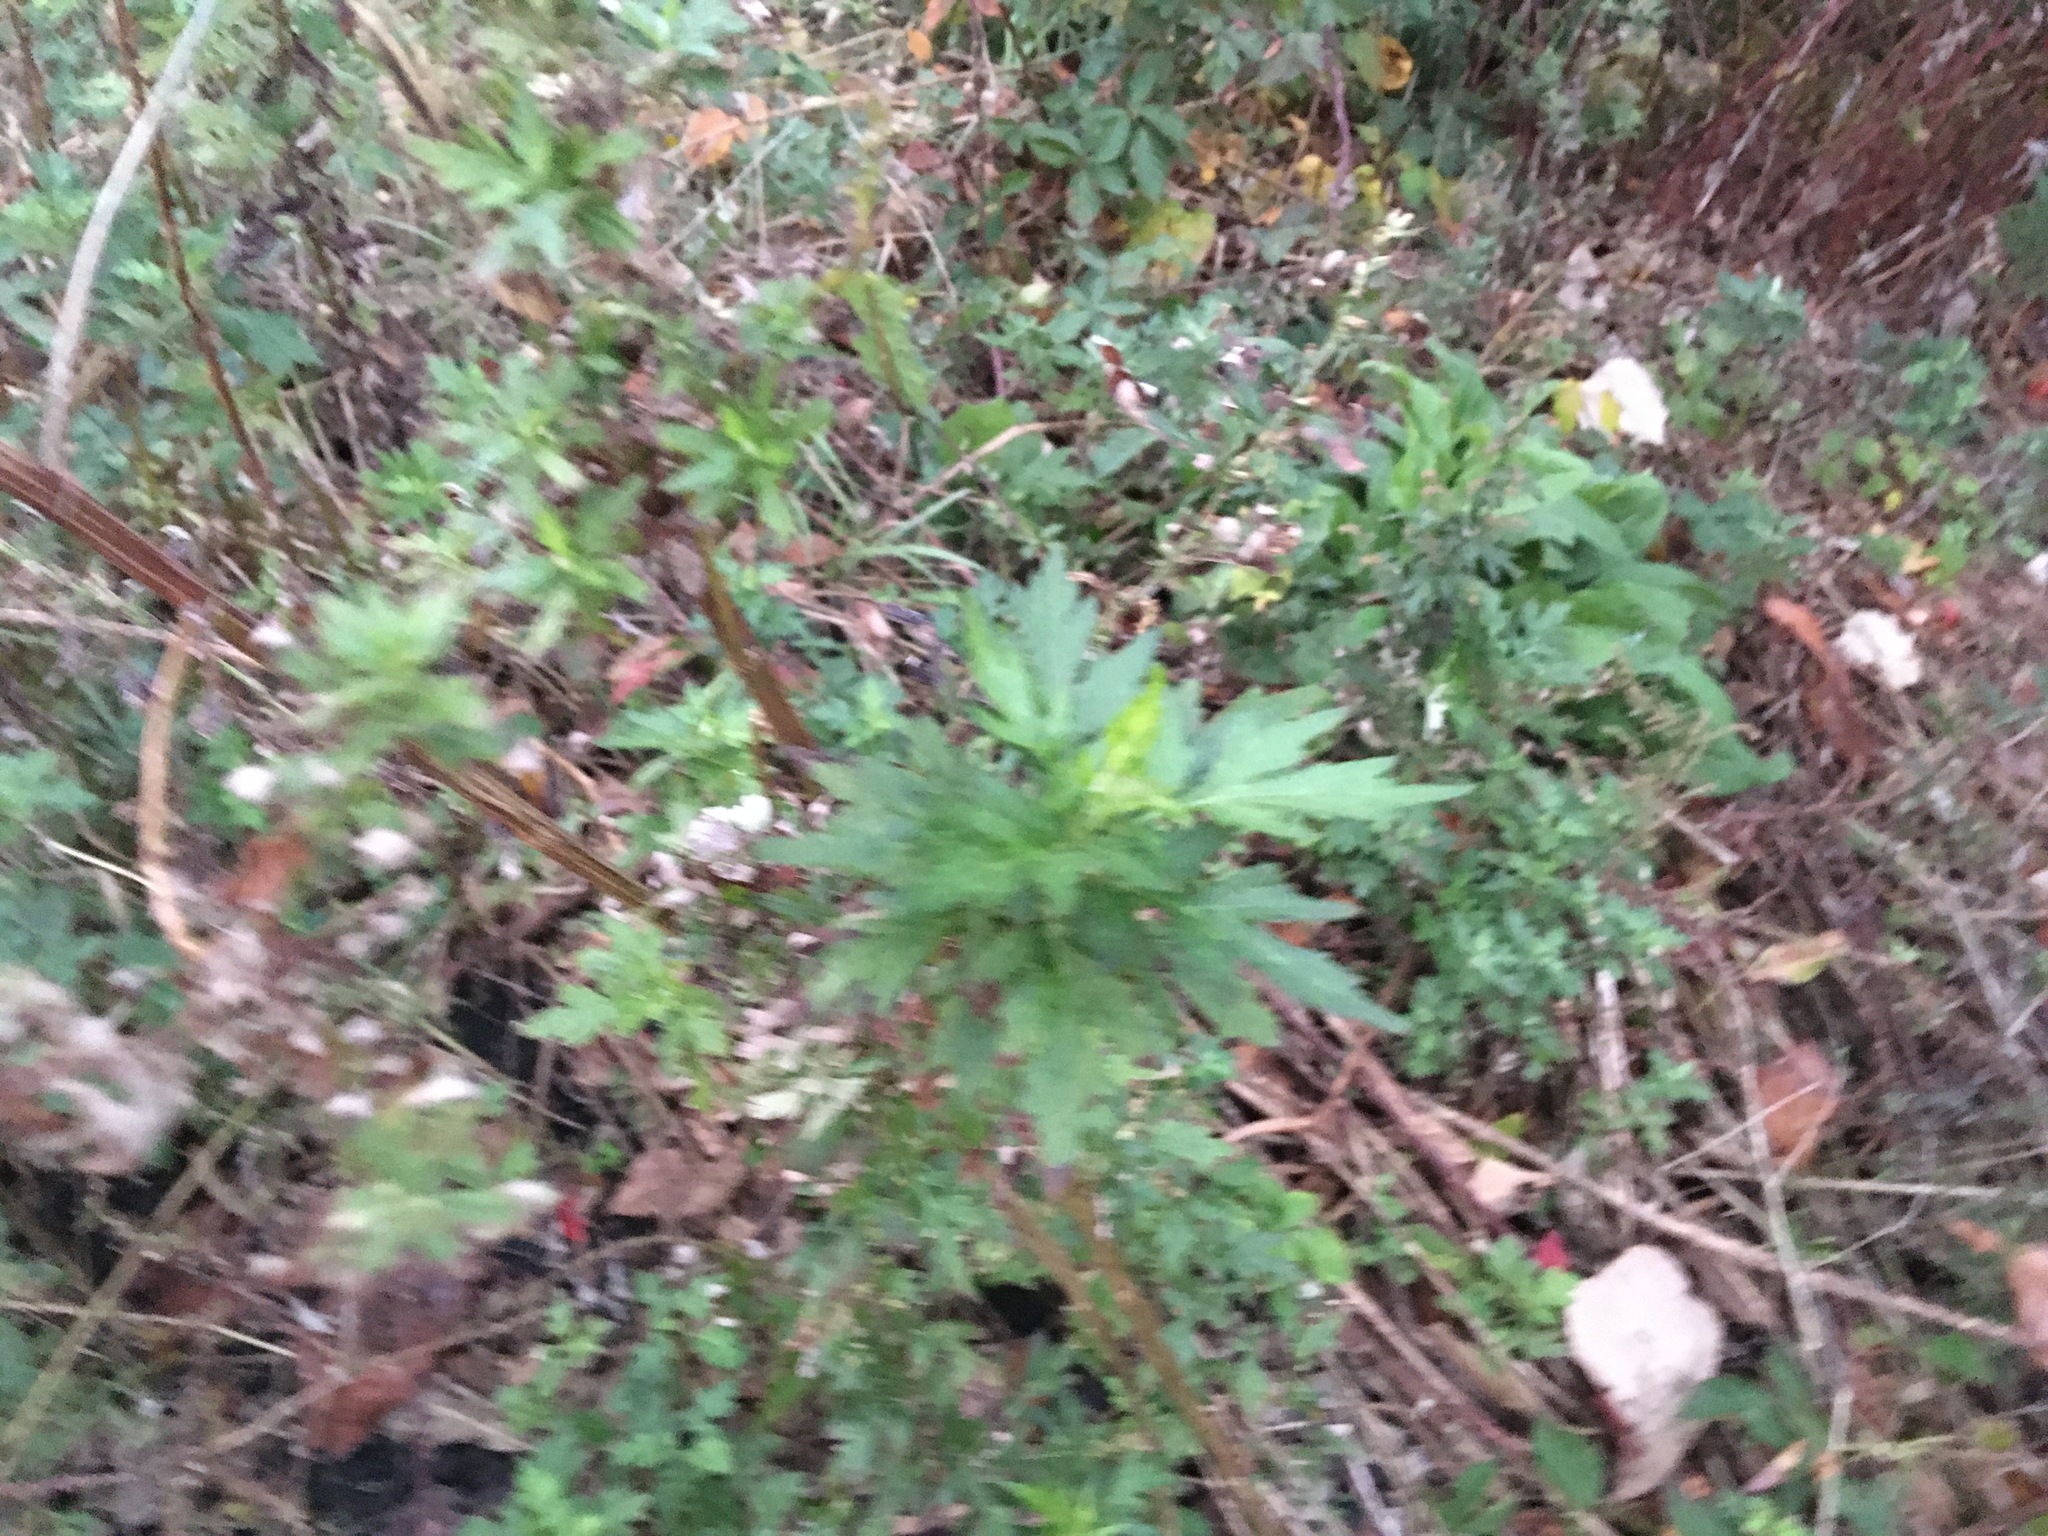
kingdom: Plantae
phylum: Tracheophyta
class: Magnoliopsida
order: Asterales
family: Asteraceae
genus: Artemisia
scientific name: Artemisia vulgaris
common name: Mugwort
